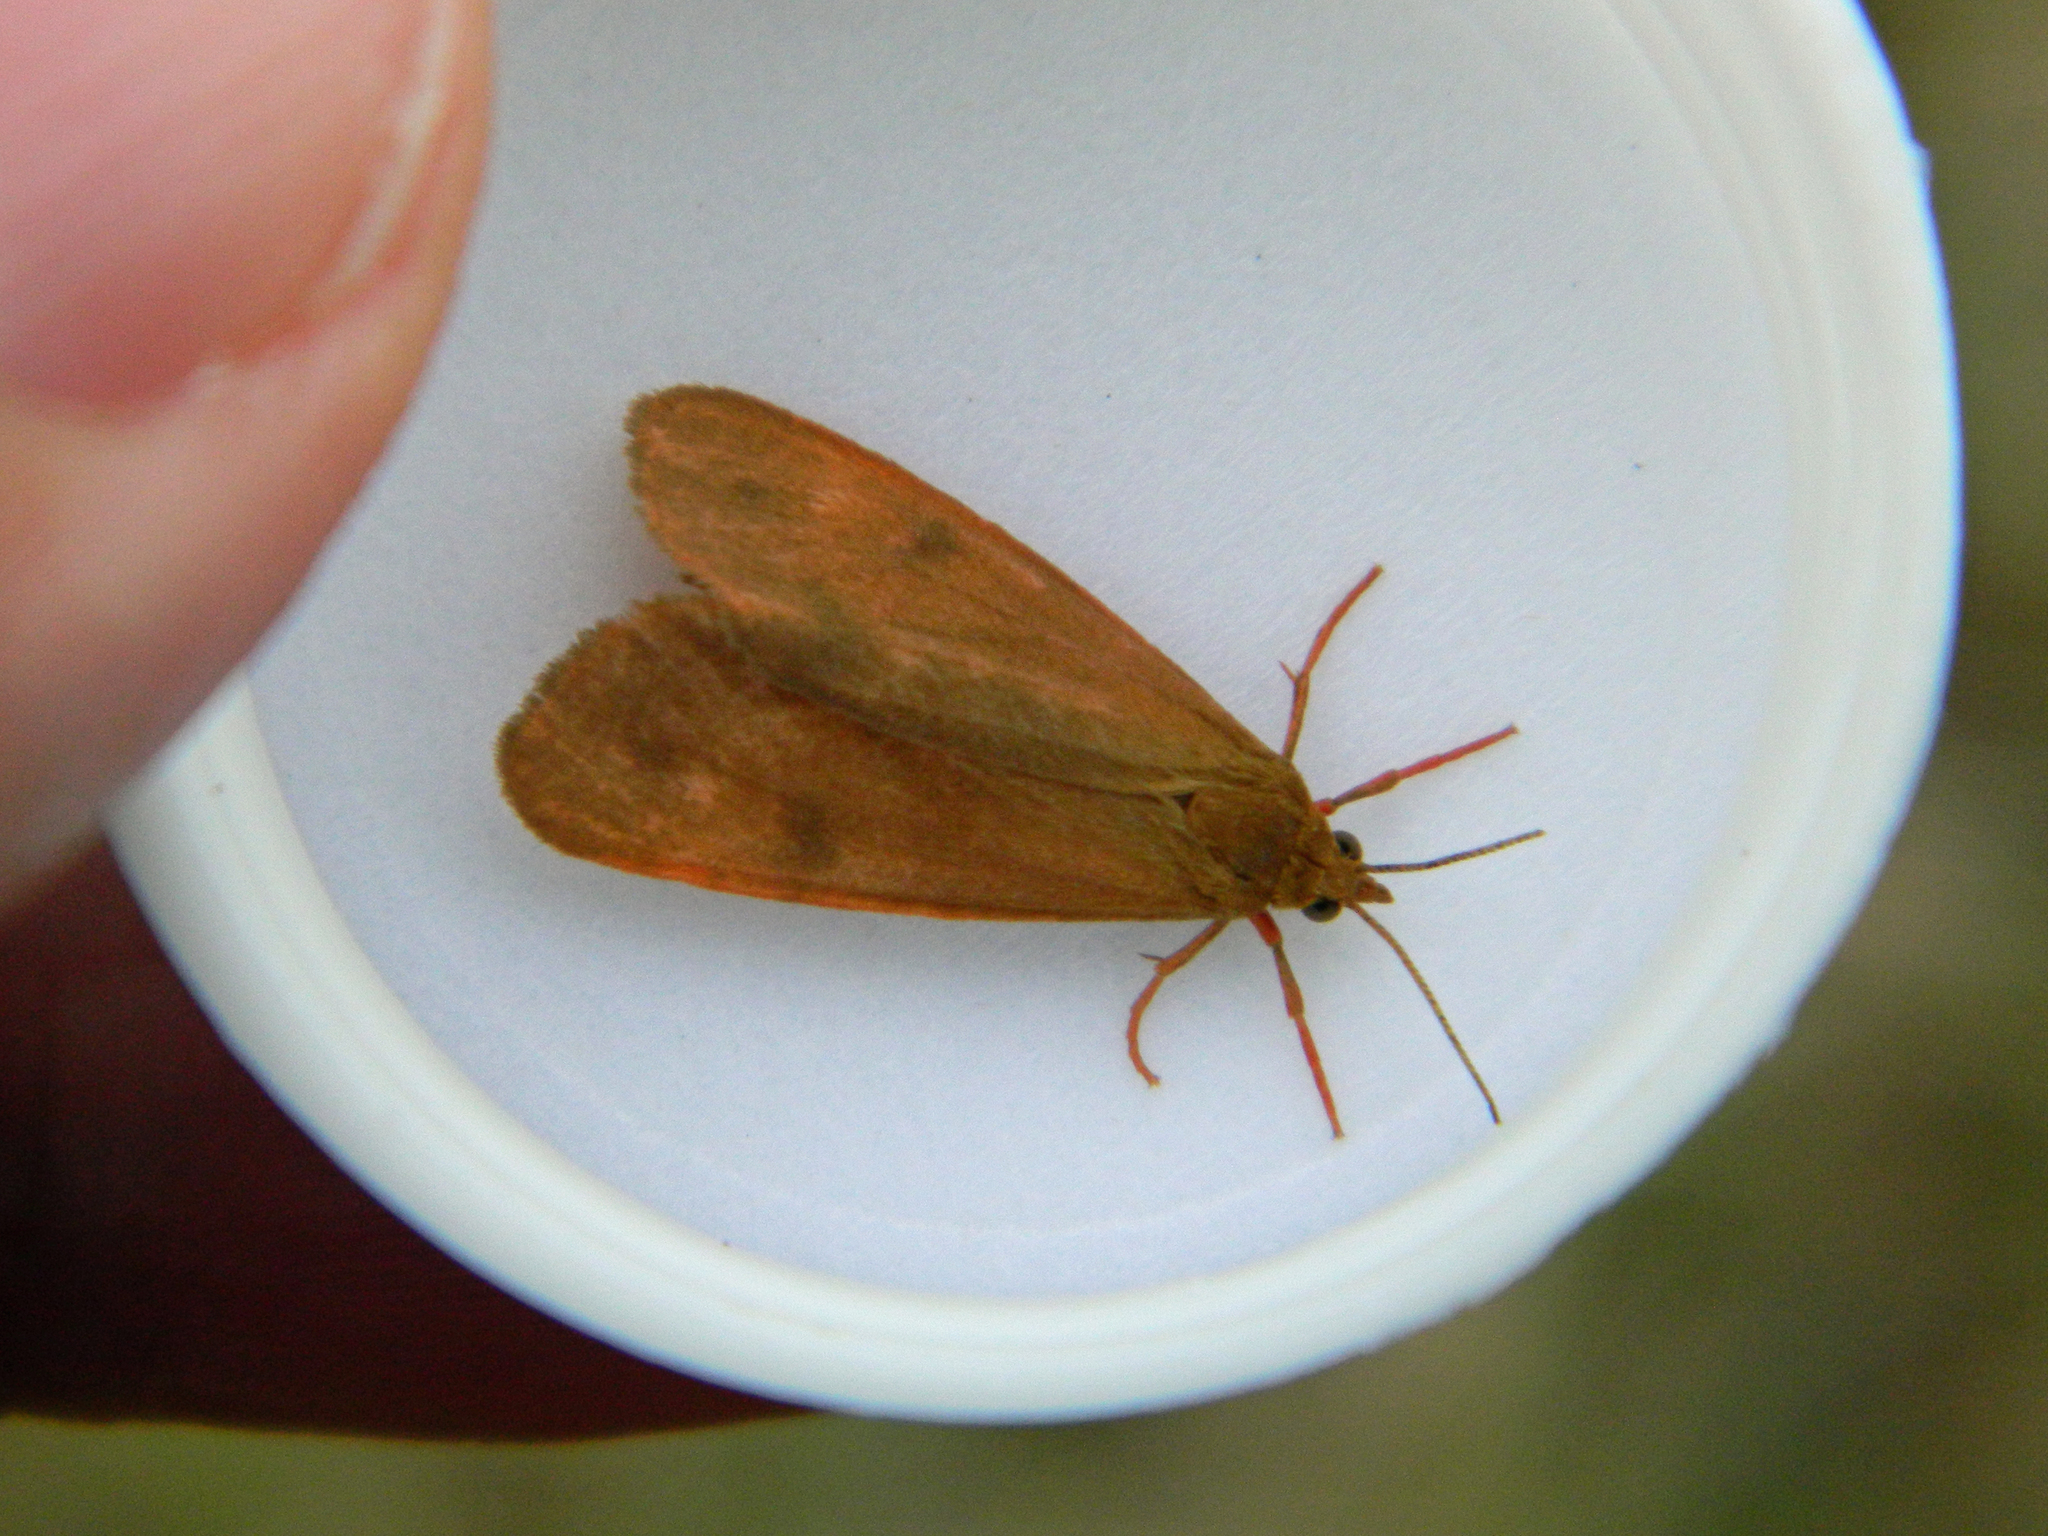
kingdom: Animalia
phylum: Arthropoda
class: Insecta
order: Lepidoptera
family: Erebidae
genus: Virbia
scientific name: Virbia ferruginosa
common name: Rusty virbia moth
